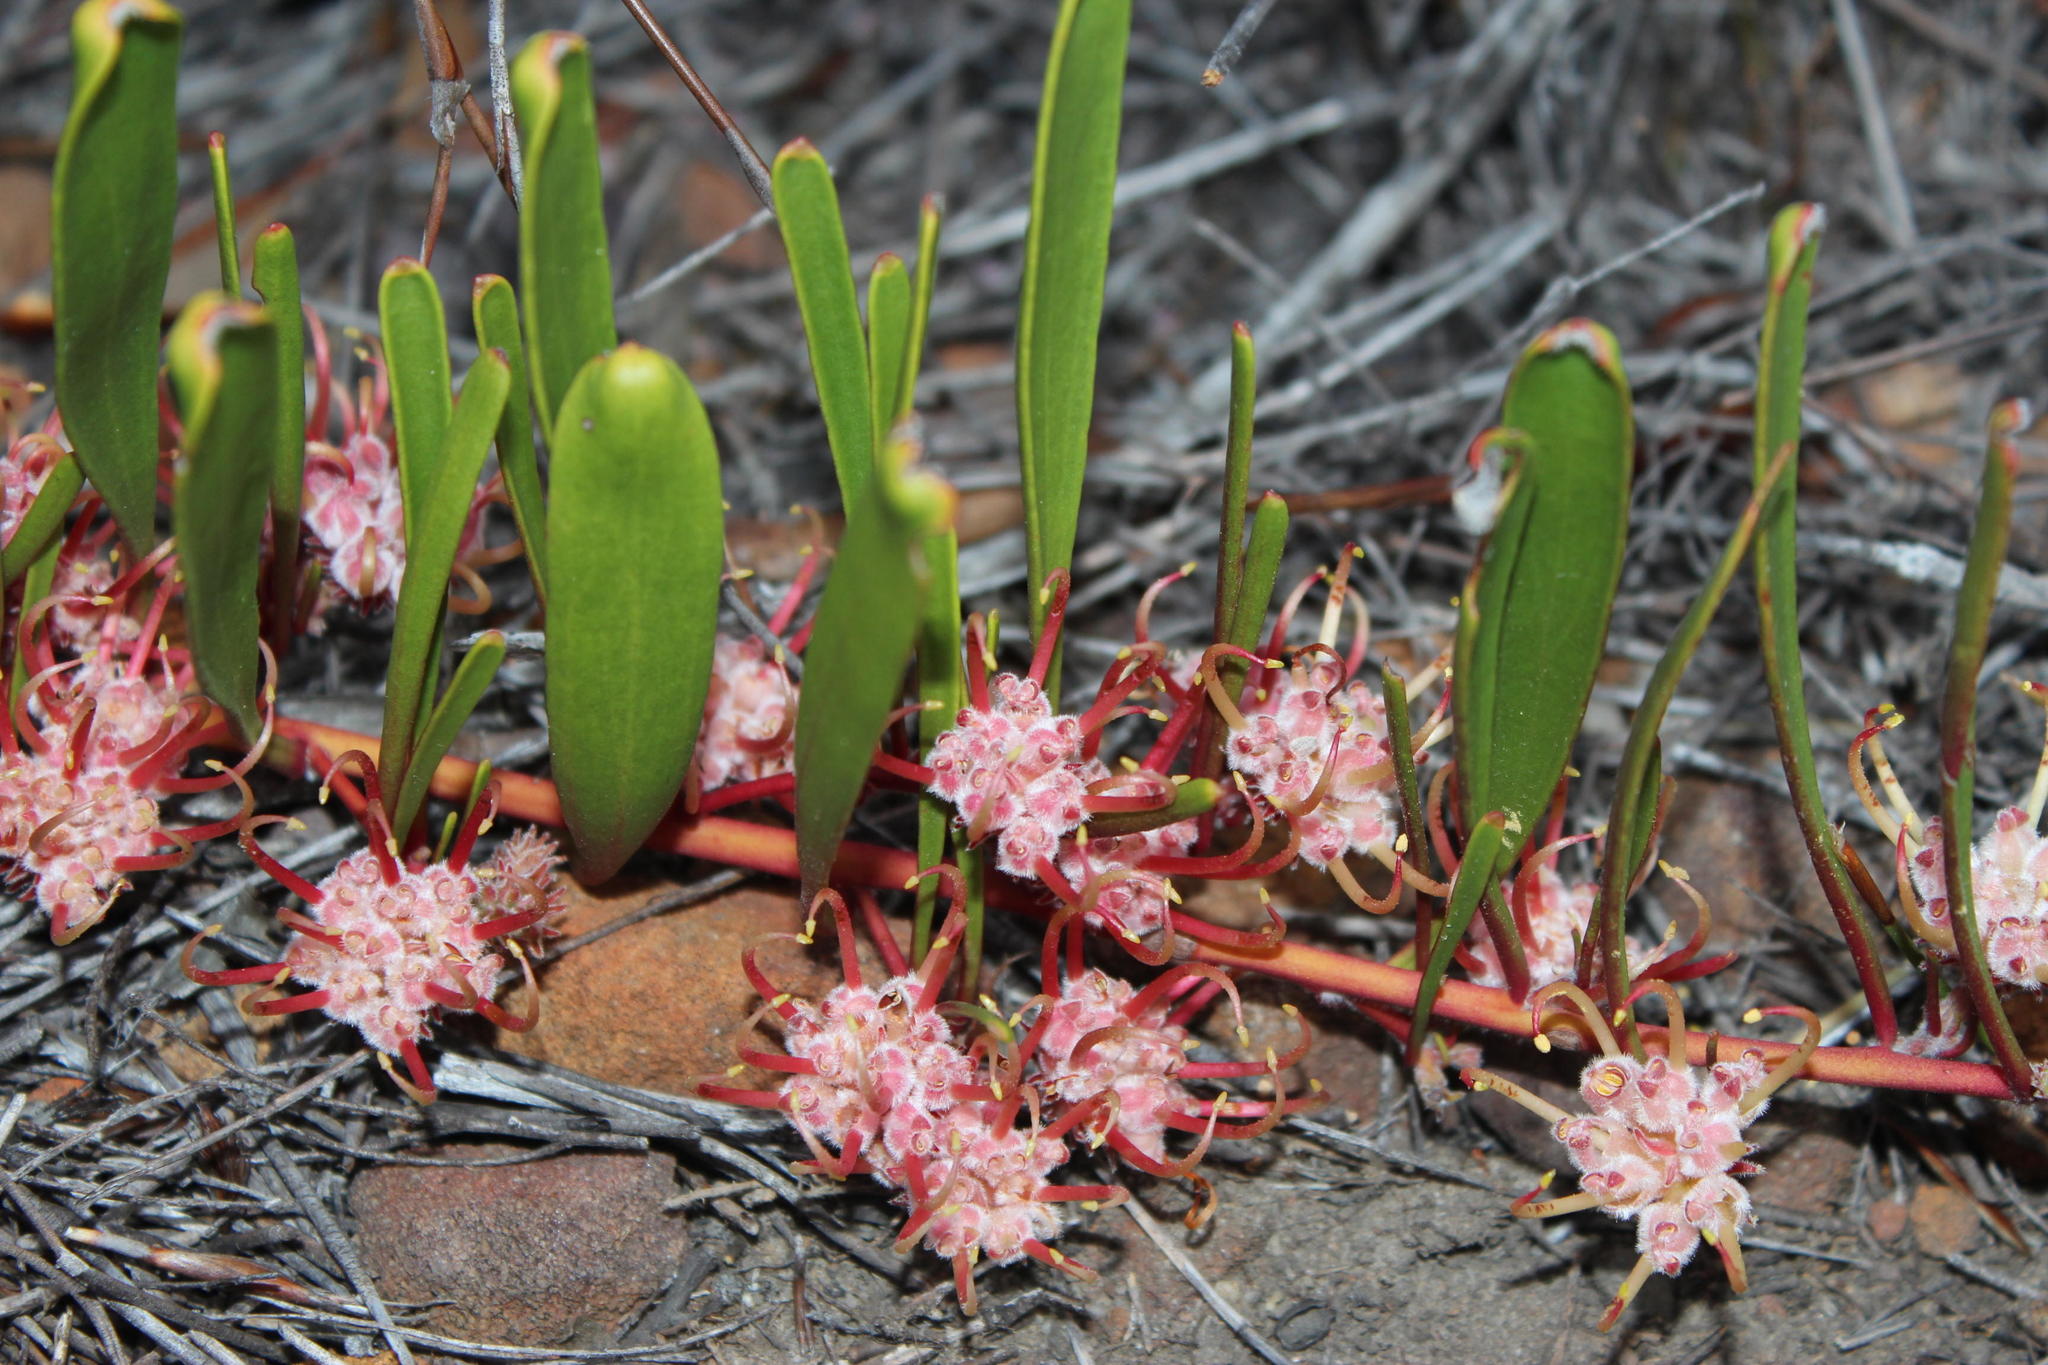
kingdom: Plantae
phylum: Tracheophyta
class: Magnoliopsida
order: Proteales
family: Proteaceae
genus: Leucospermum
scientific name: Leucospermum harpagonatum
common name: Mcgregor pincushion
